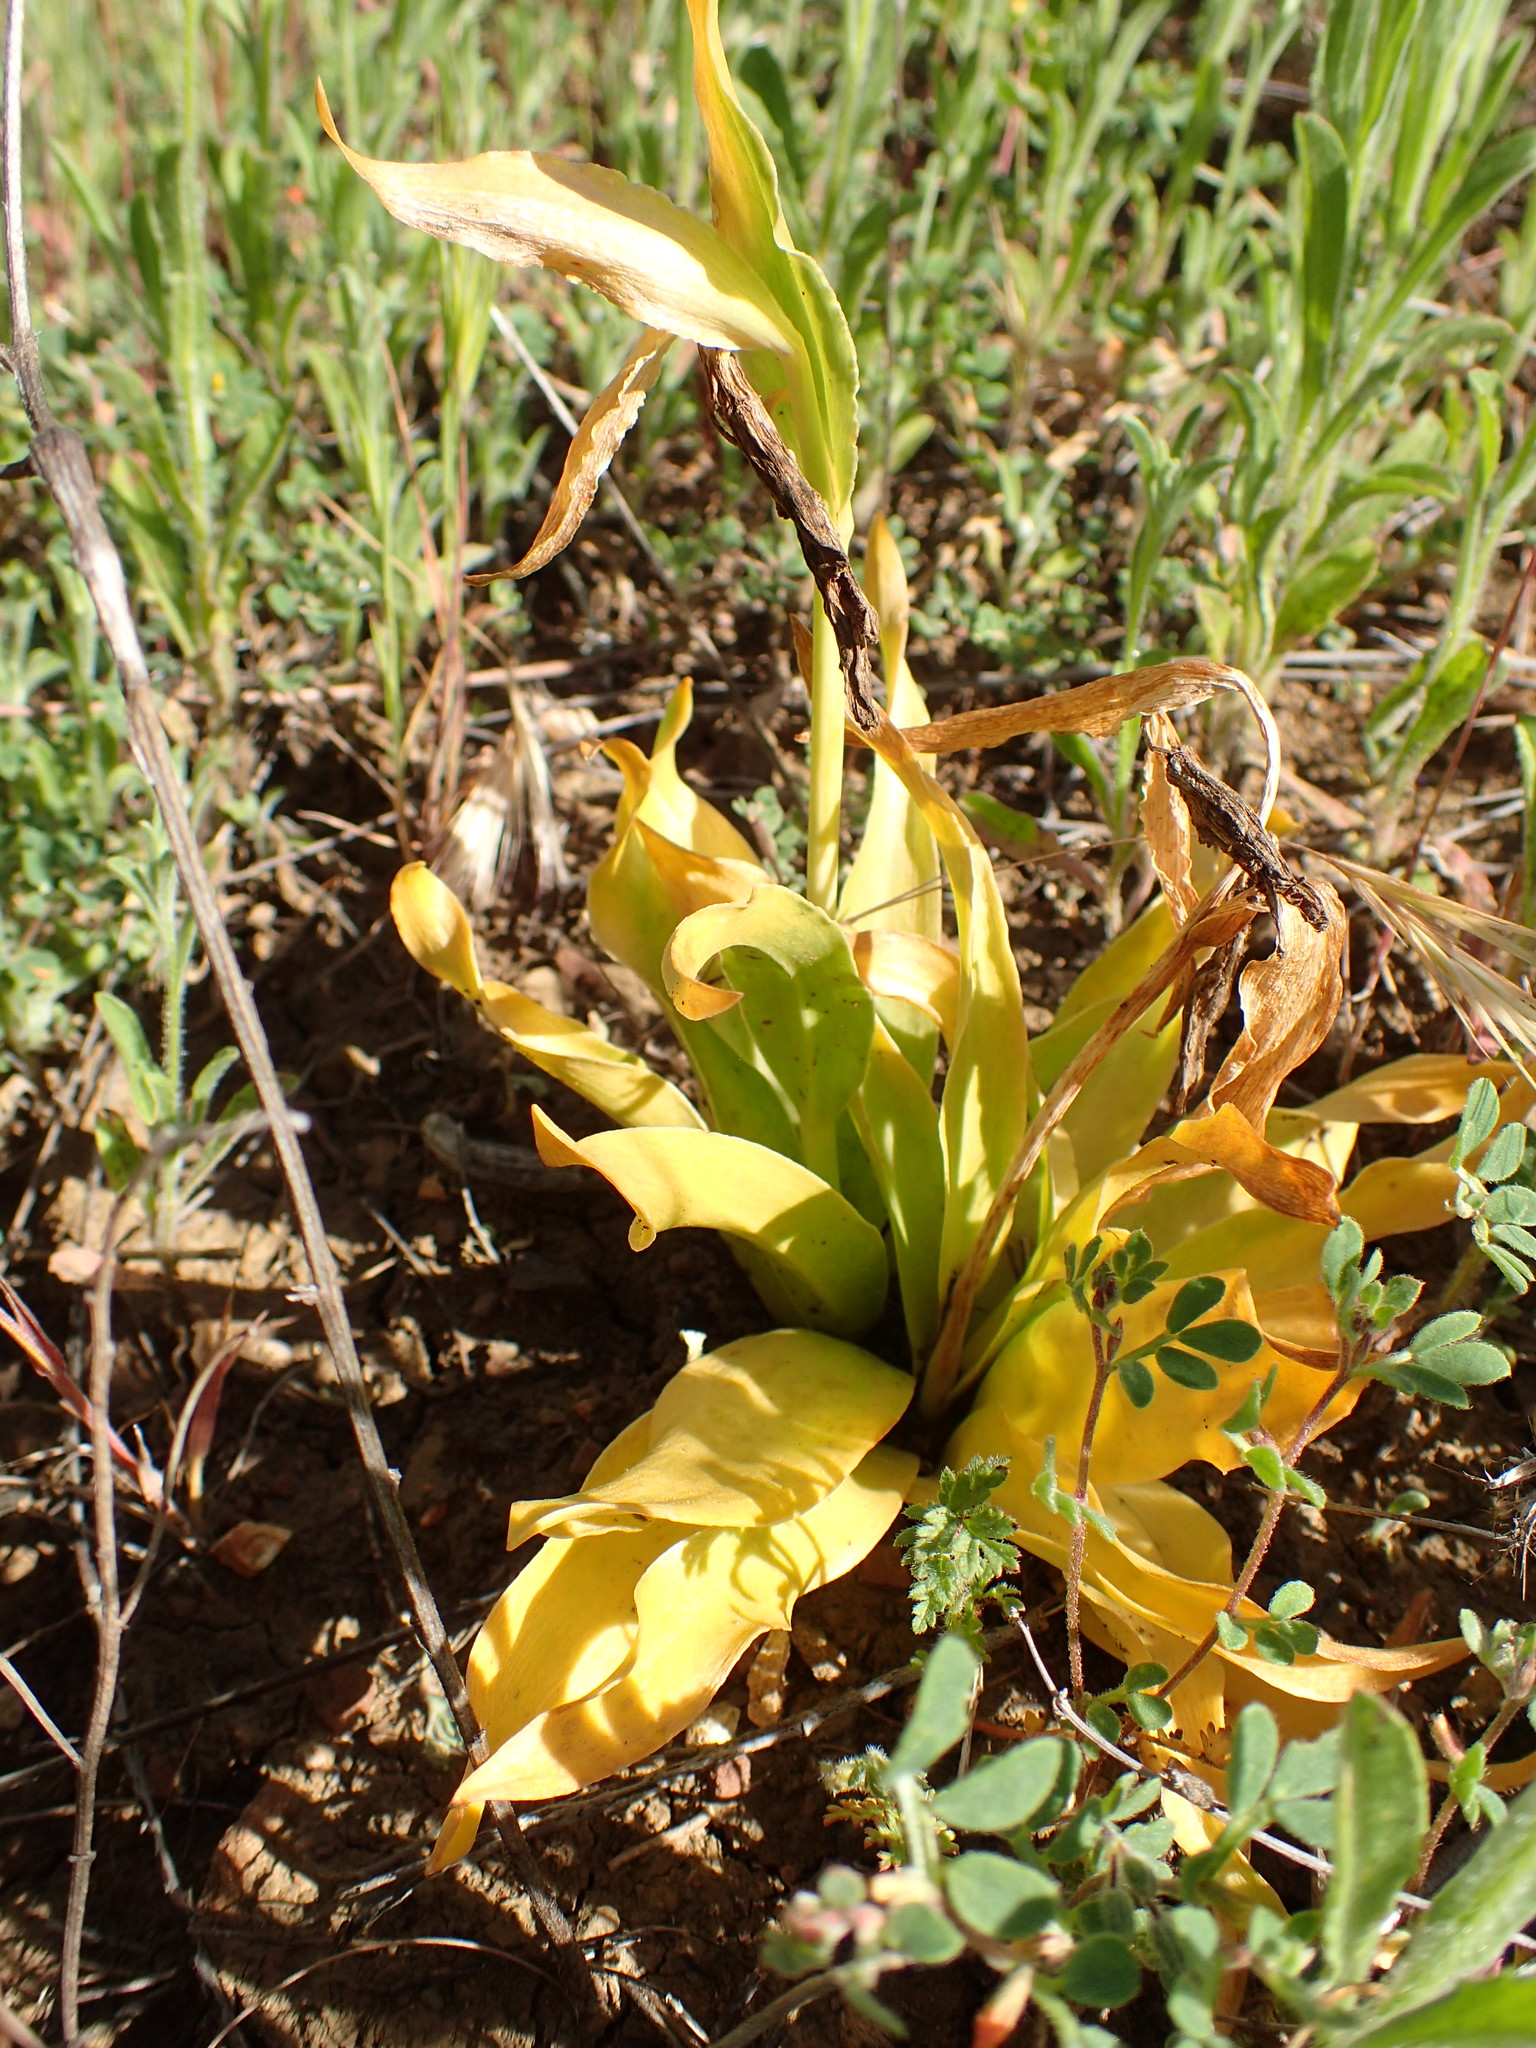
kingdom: Plantae
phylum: Tracheophyta
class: Liliopsida
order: Liliales
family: Liliaceae
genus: Fritillaria
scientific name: Fritillaria biflora
